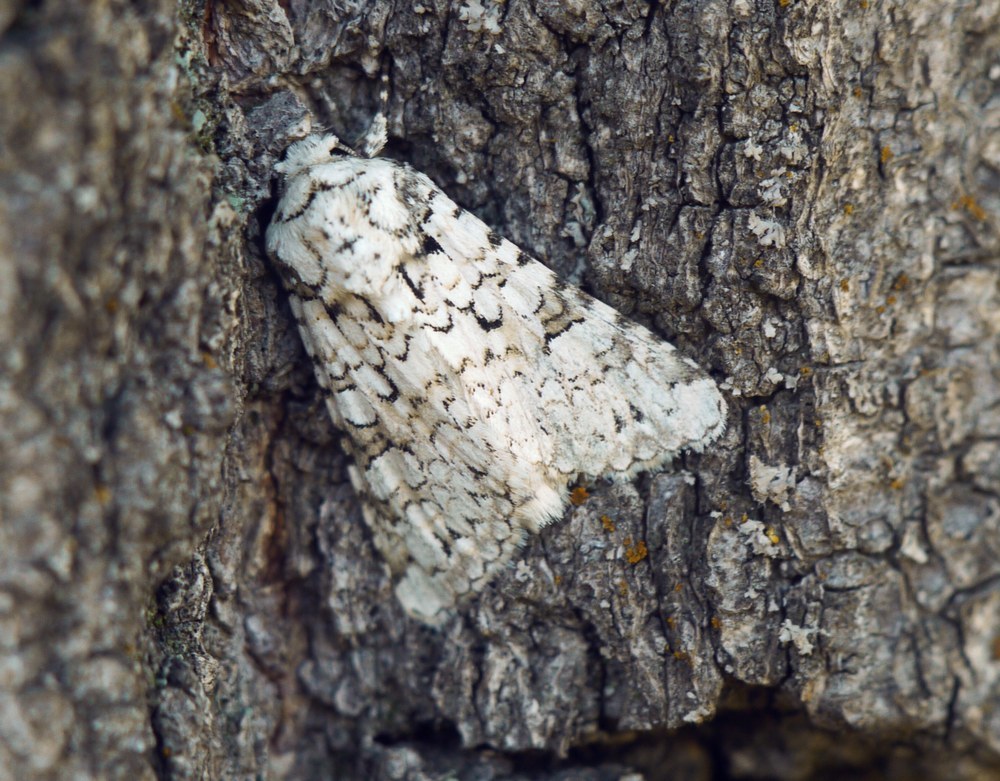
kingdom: Animalia
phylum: Arthropoda
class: Insecta
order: Lepidoptera
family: Noctuidae
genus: Hecatera
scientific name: Hecatera cappa
